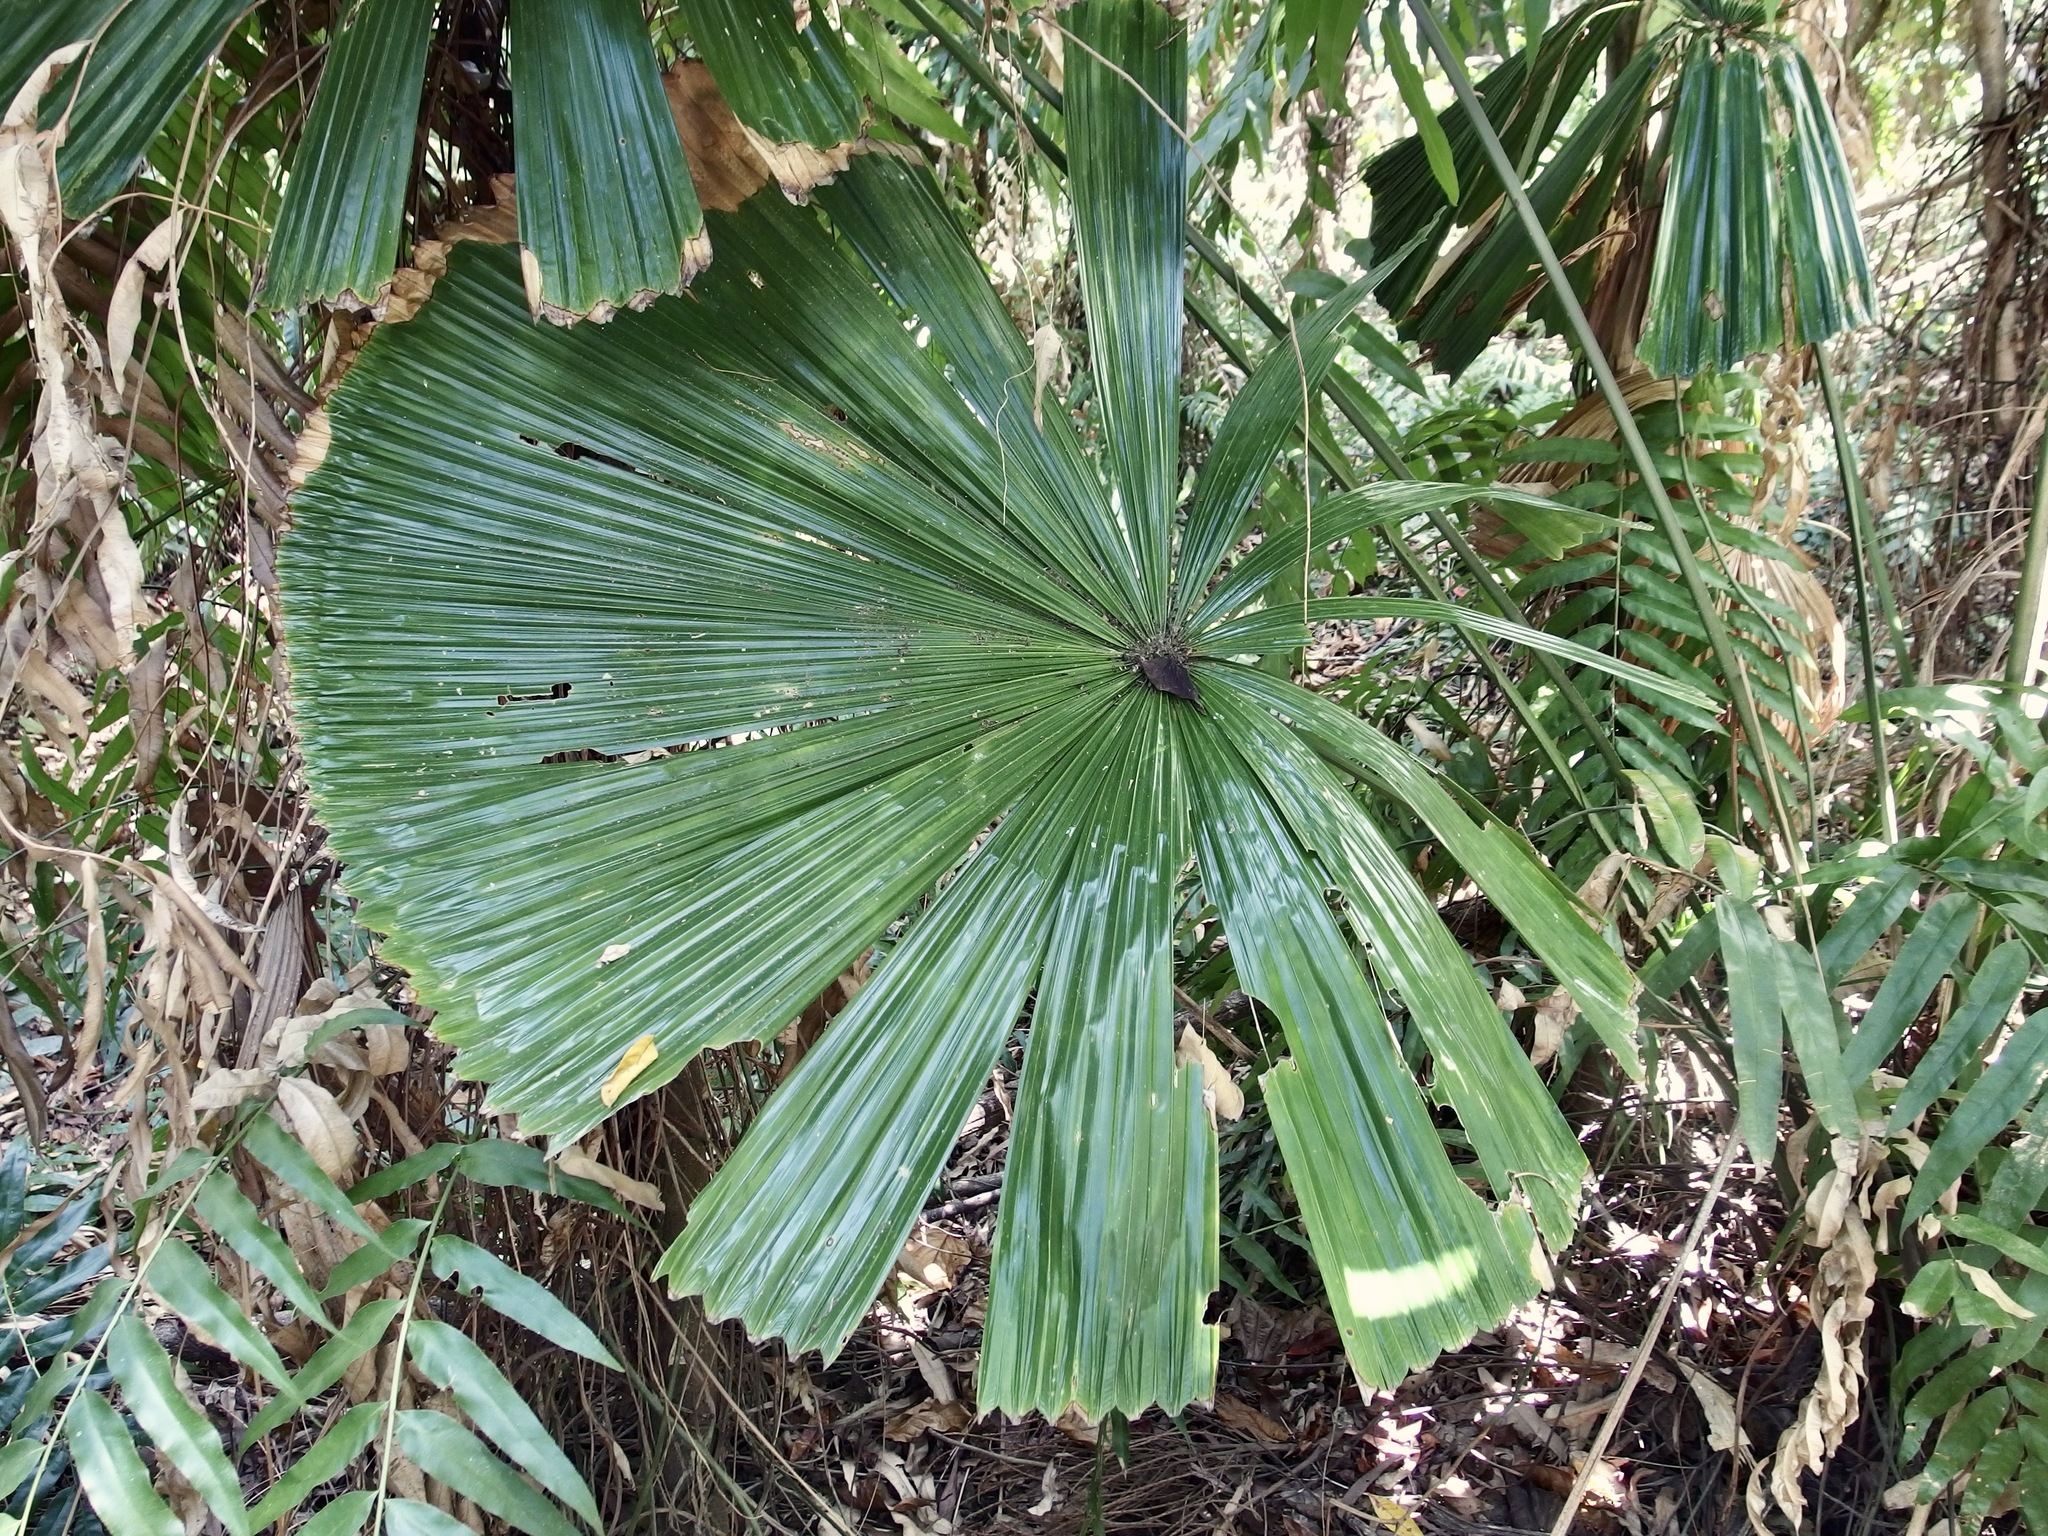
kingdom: Plantae
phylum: Tracheophyta
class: Liliopsida
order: Arecales
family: Arecaceae
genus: Licuala
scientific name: Licuala ramsayi
